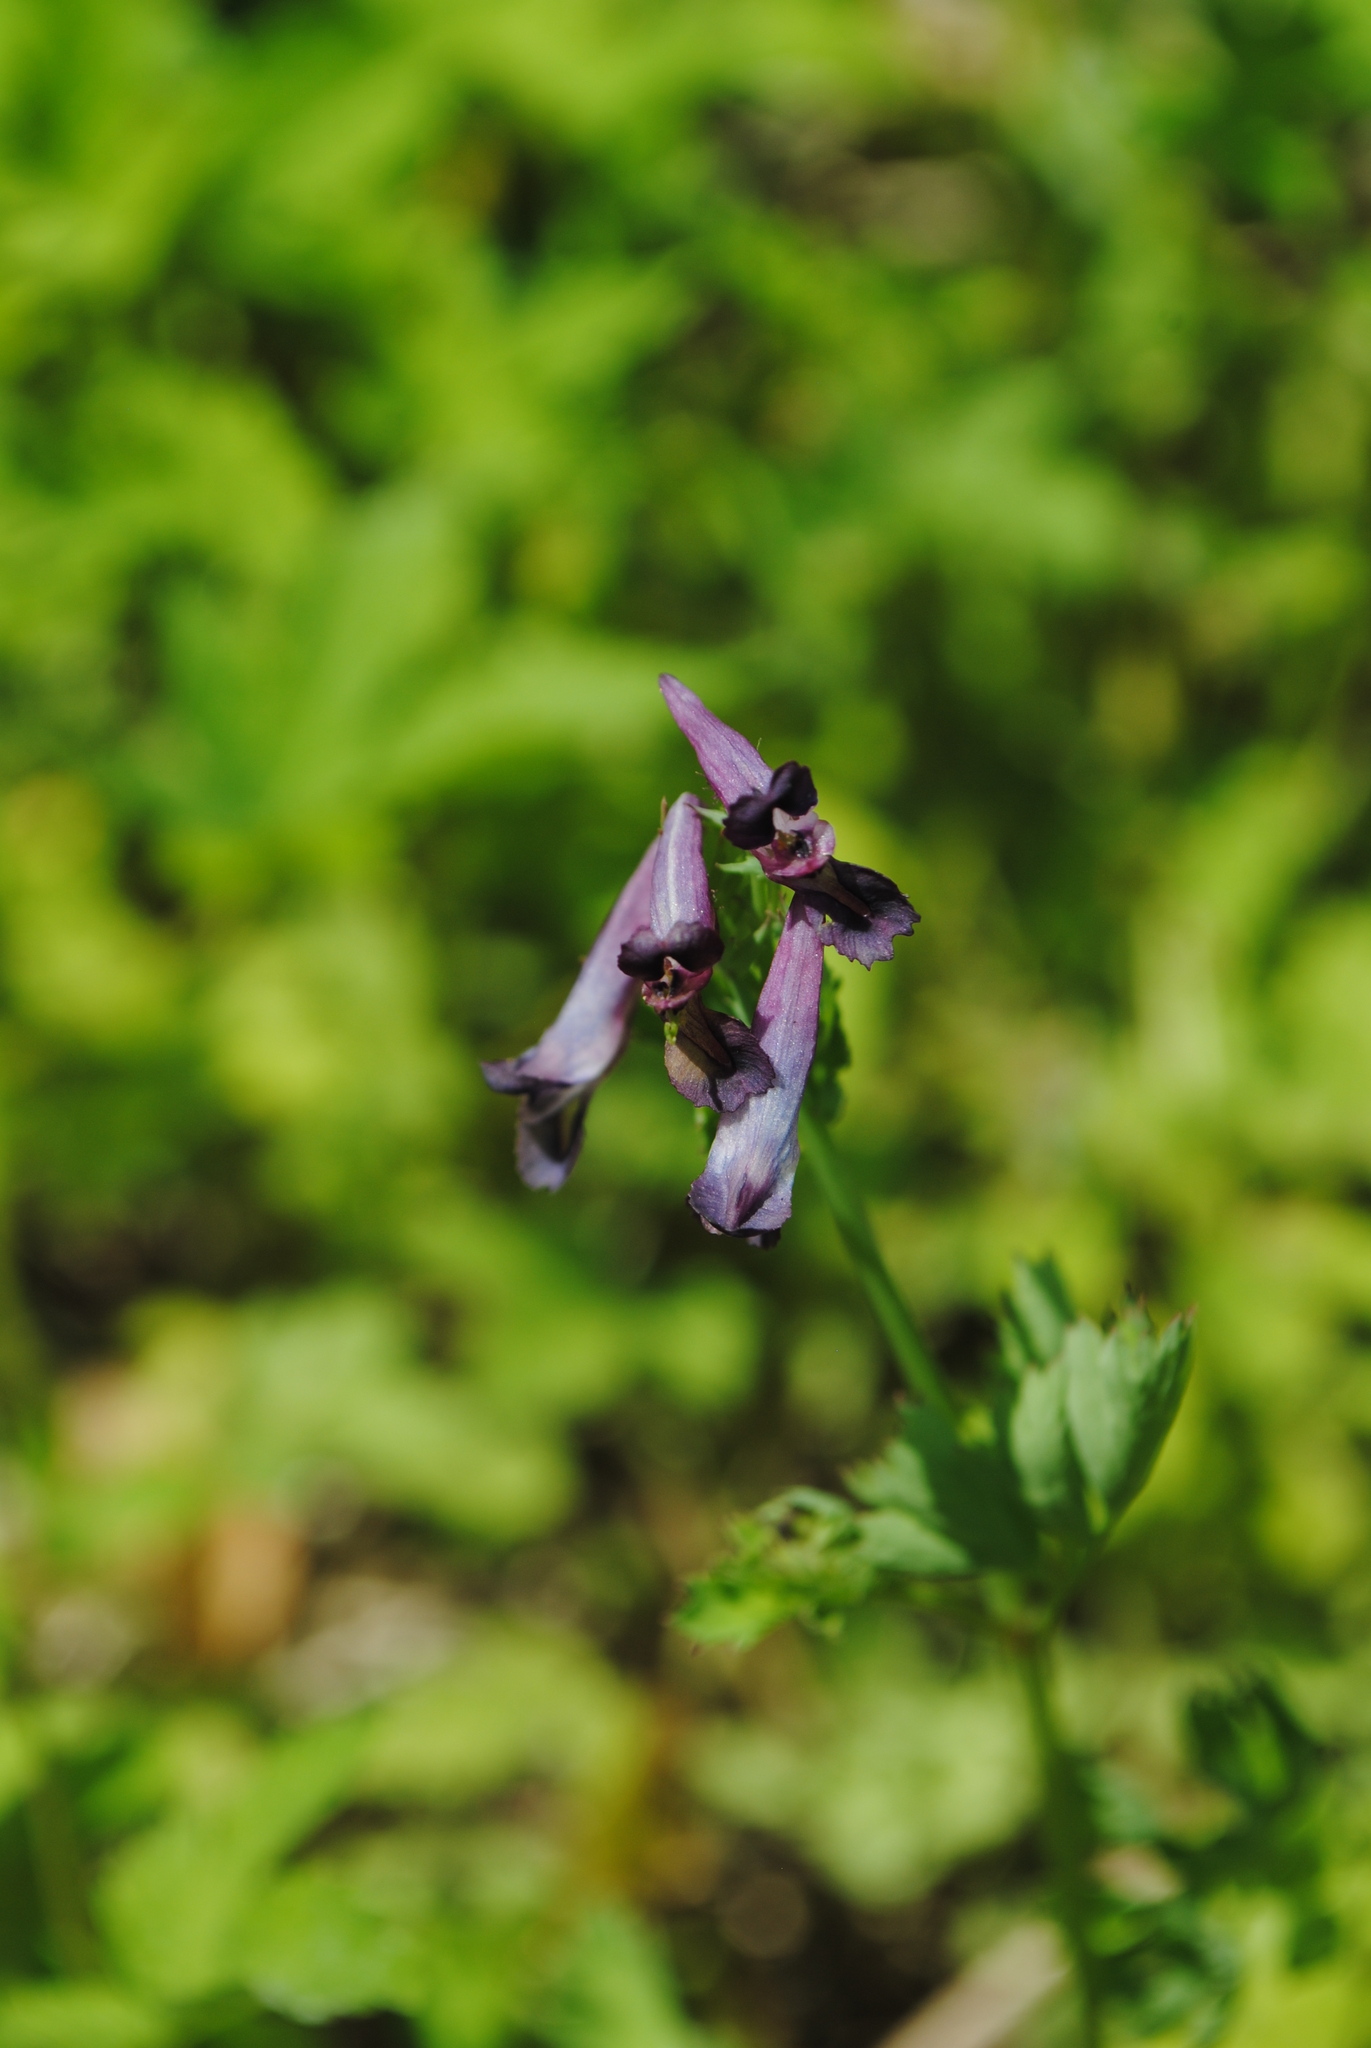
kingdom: Plantae
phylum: Tracheophyta
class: Magnoliopsida
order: Ranunculales
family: Papaveraceae
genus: Corydalis
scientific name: Corydalis incisa
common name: Incised fumewort
